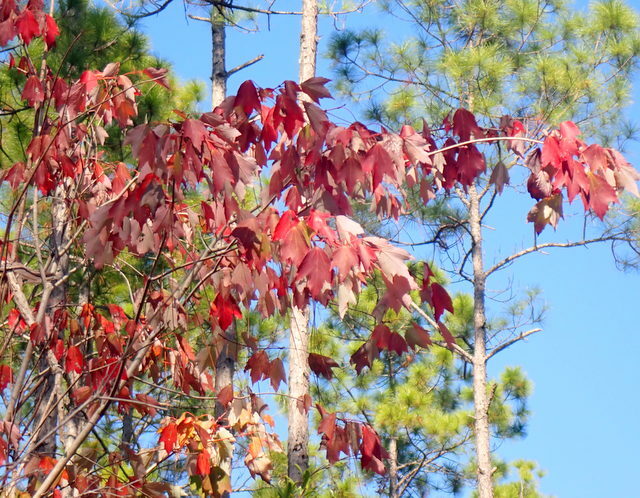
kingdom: Plantae
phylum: Tracheophyta
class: Magnoliopsida
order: Sapindales
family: Sapindaceae
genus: Acer
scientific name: Acer rubrum
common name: Red maple
